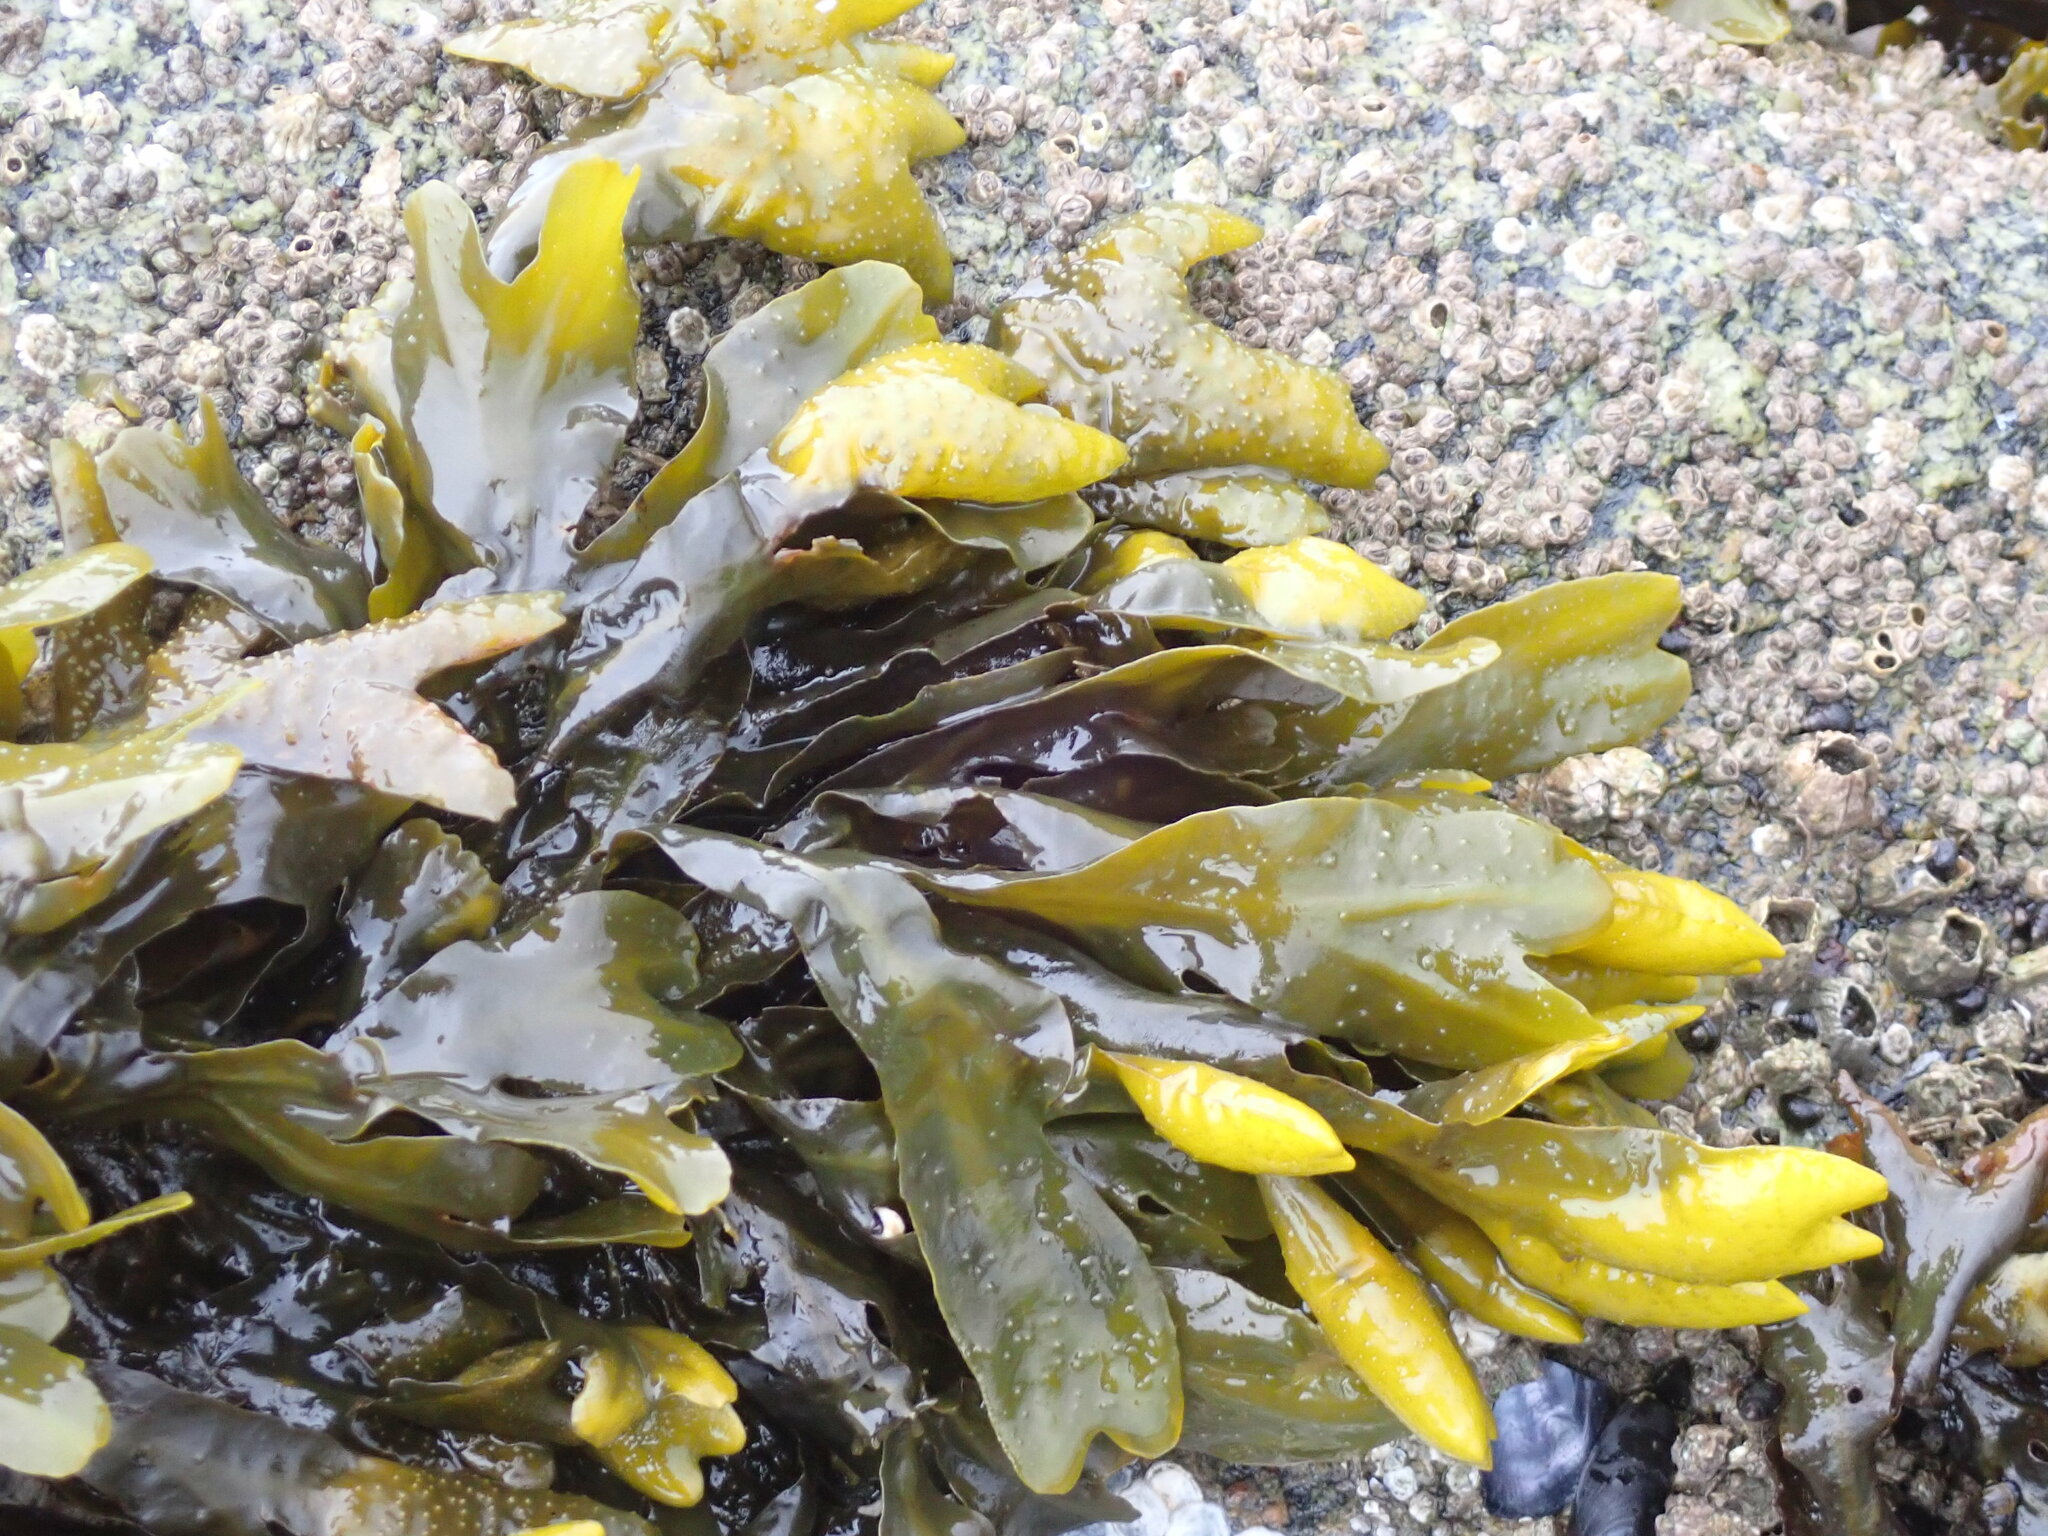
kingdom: Chromista
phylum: Ochrophyta
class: Phaeophyceae
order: Fucales
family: Fucaceae
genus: Fucus
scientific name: Fucus distichus
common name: Rockweed
